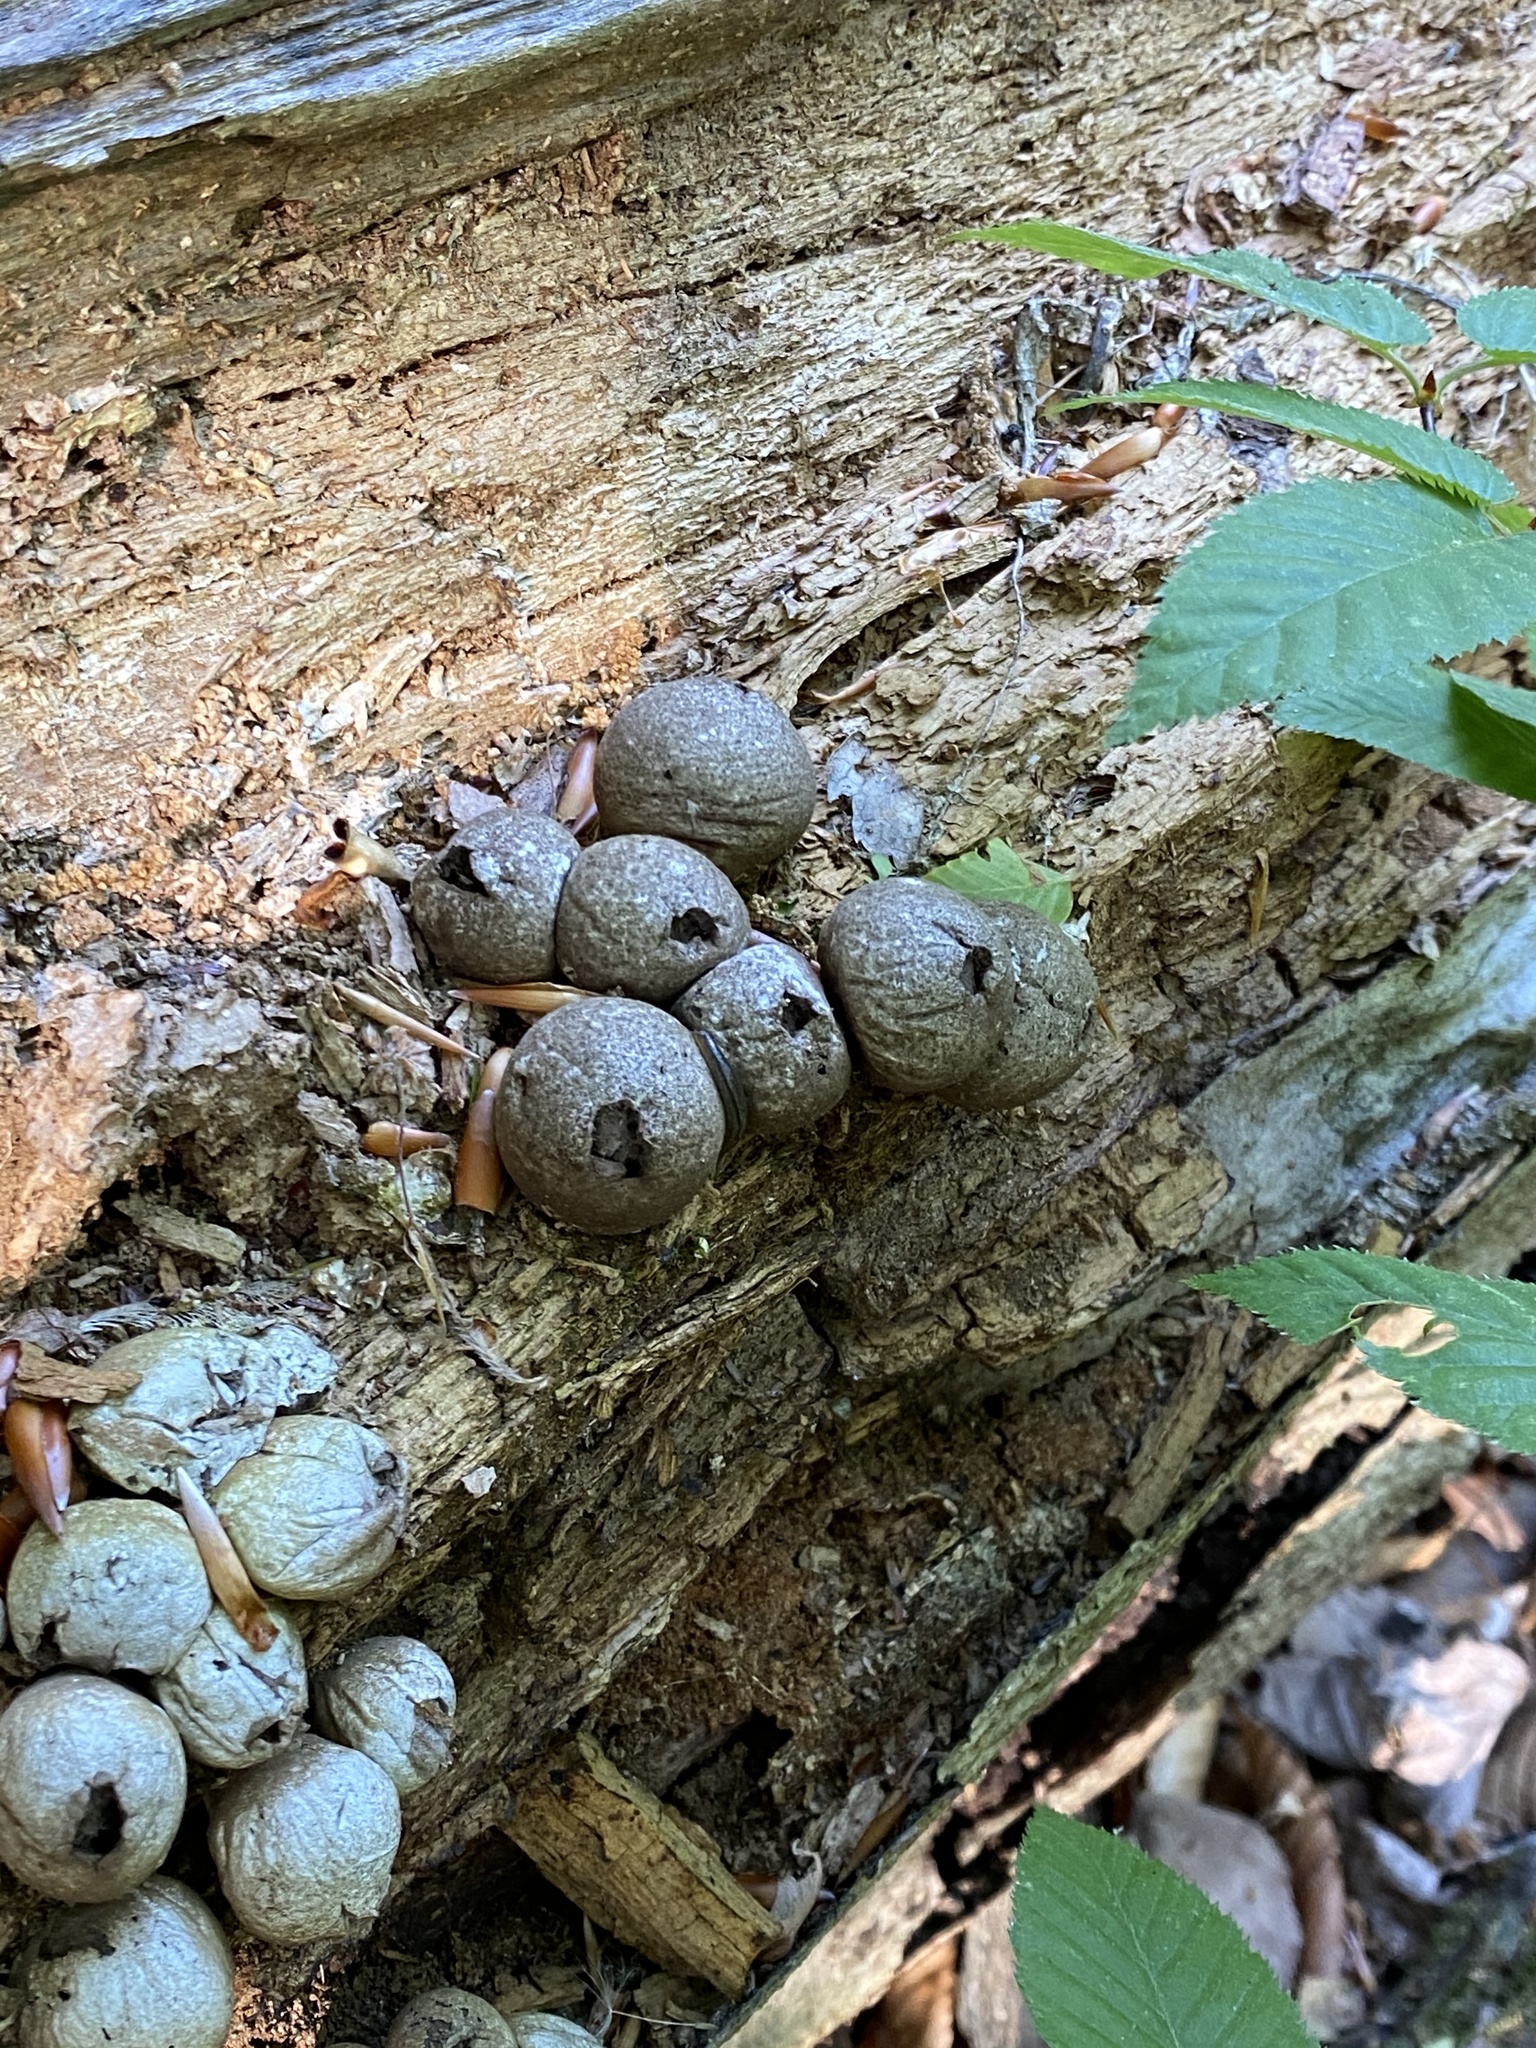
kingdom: Fungi
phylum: Basidiomycota
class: Agaricomycetes
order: Agaricales
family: Lycoperdaceae
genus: Apioperdon
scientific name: Apioperdon pyriforme
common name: Pear-shaped puffball
